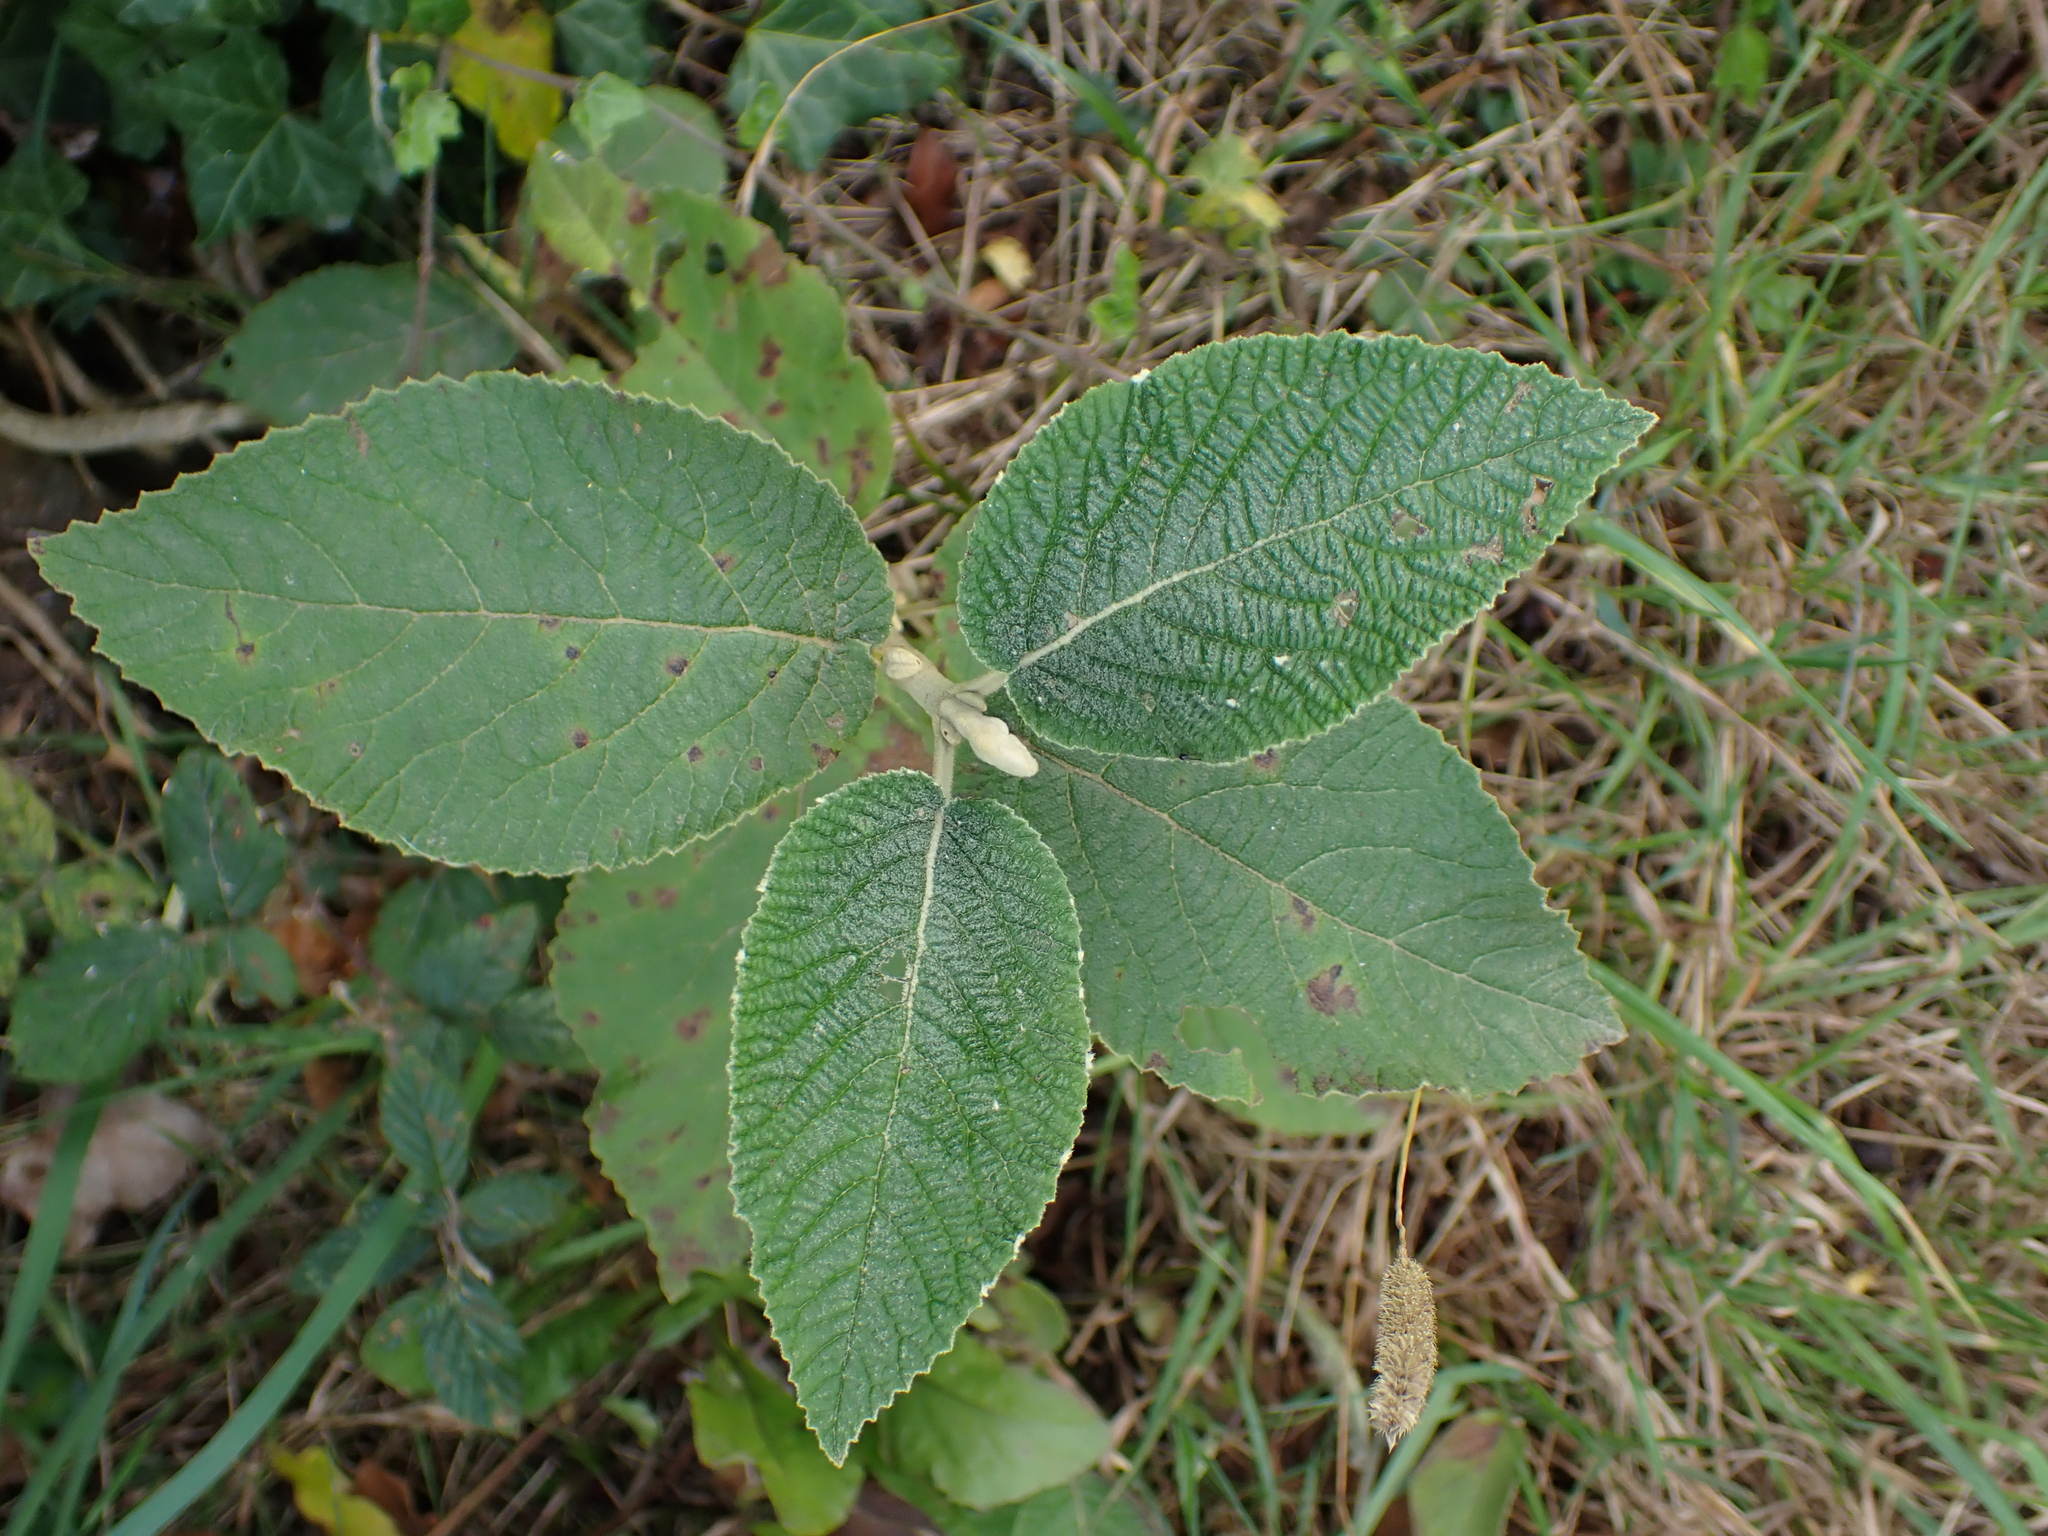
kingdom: Plantae
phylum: Tracheophyta
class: Magnoliopsida
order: Dipsacales
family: Viburnaceae
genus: Viburnum
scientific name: Viburnum lantana
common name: Wayfaring tree
